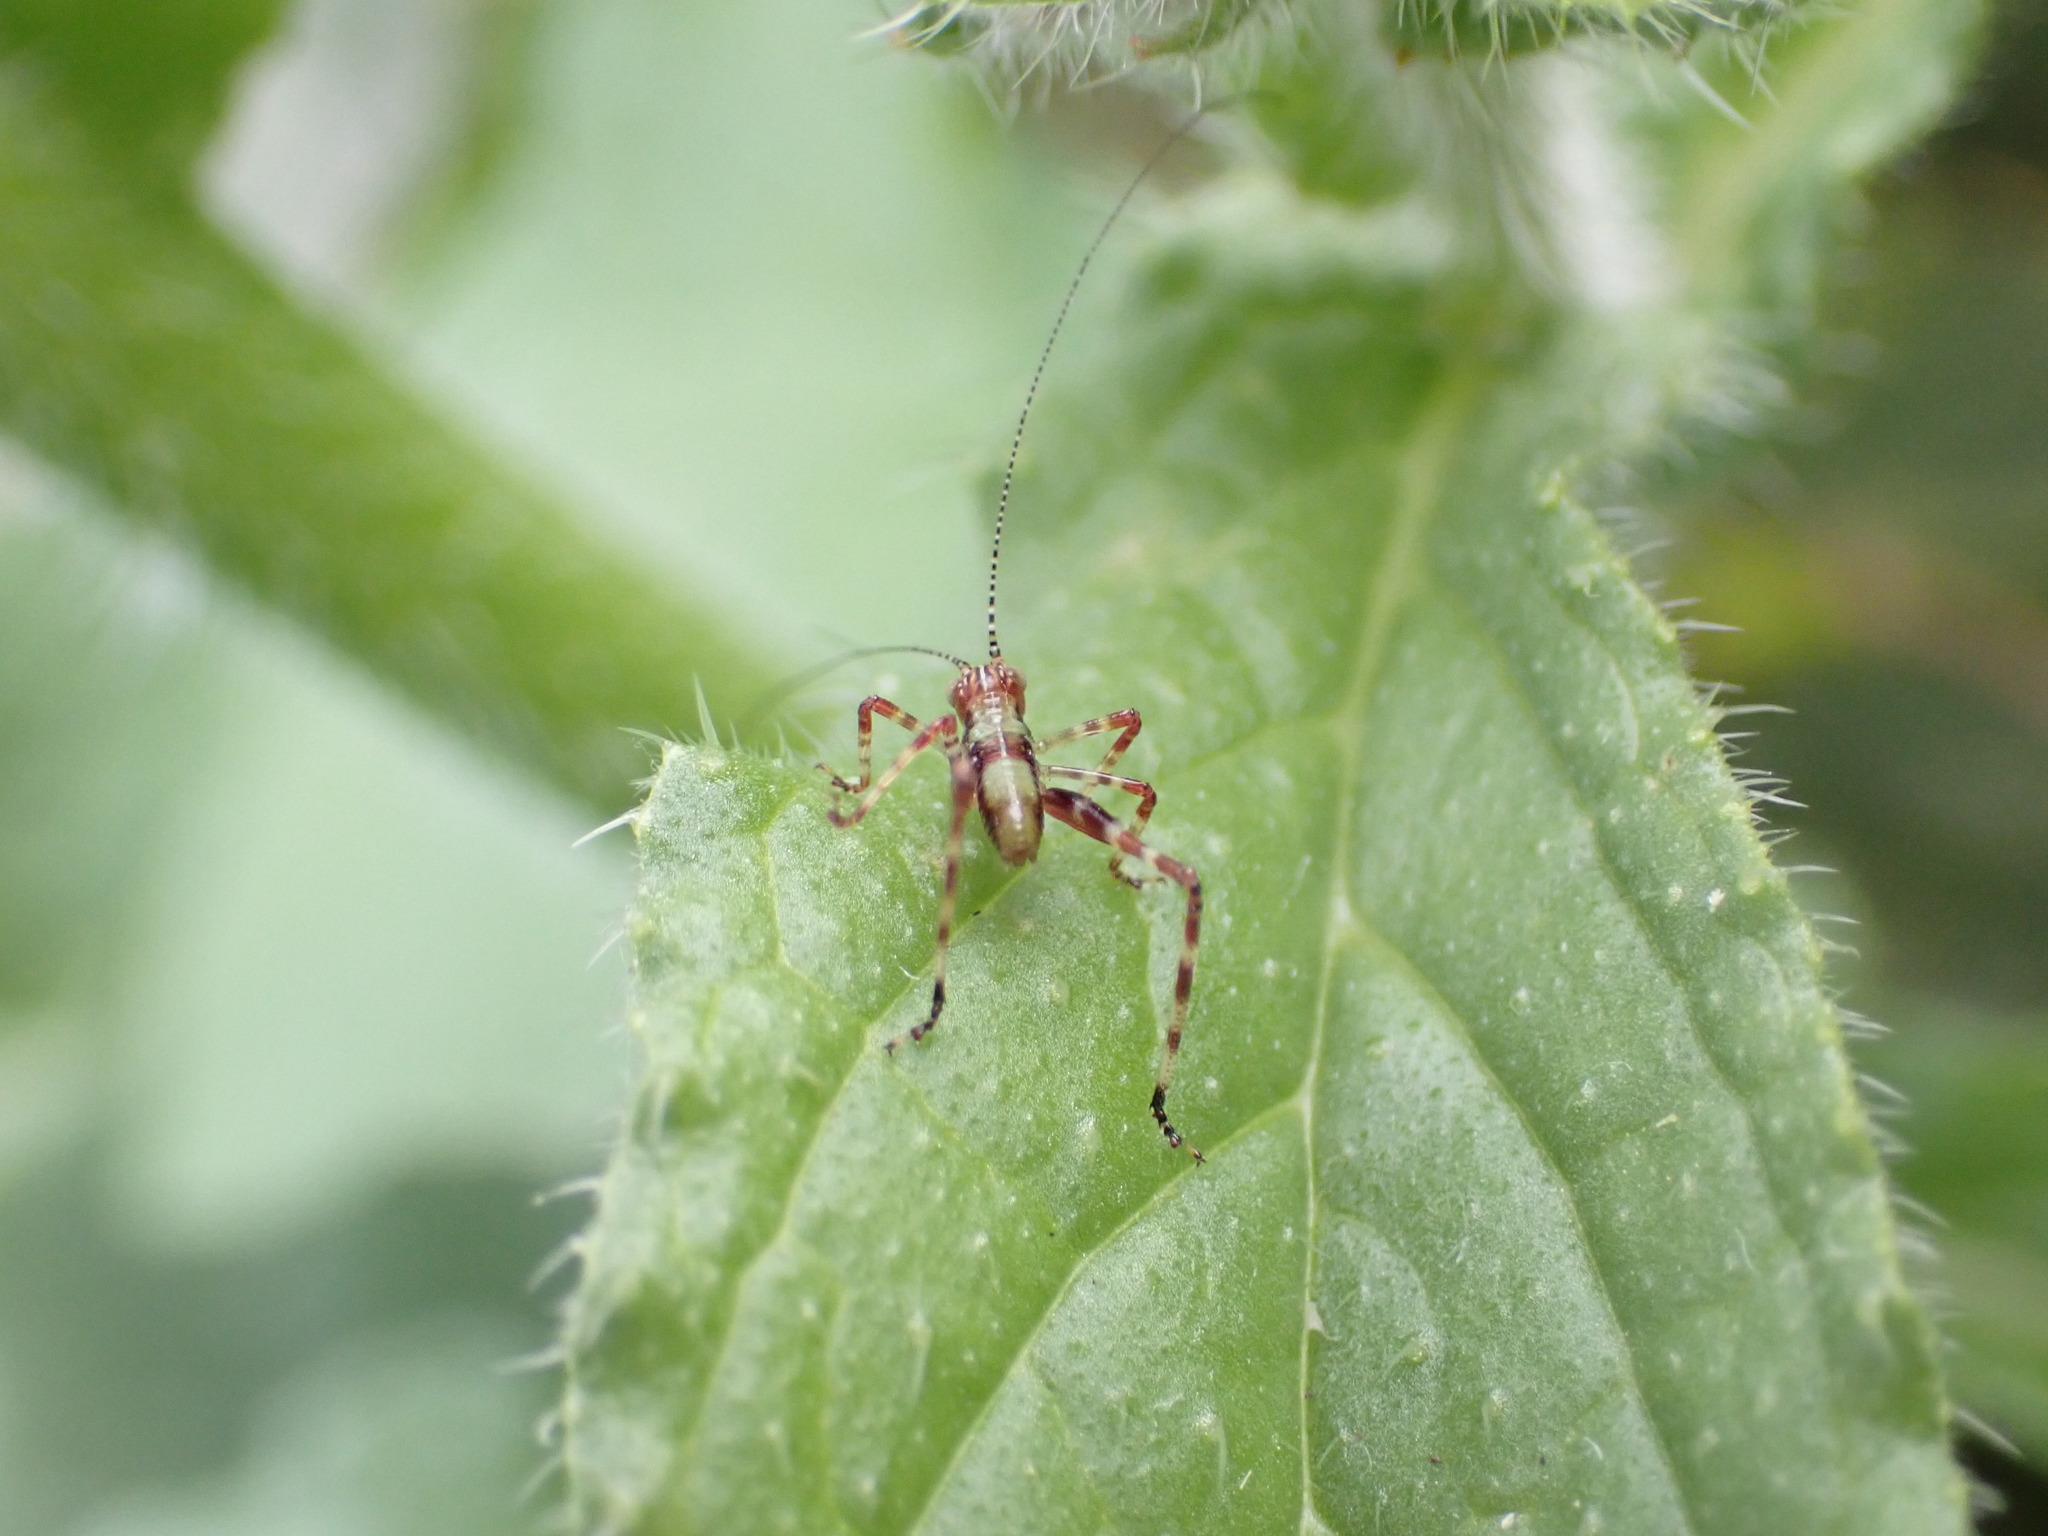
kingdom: Animalia
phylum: Arthropoda
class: Insecta
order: Orthoptera
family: Tettigoniidae
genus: Caedicia
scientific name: Caedicia simplex
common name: Common garden katydid
